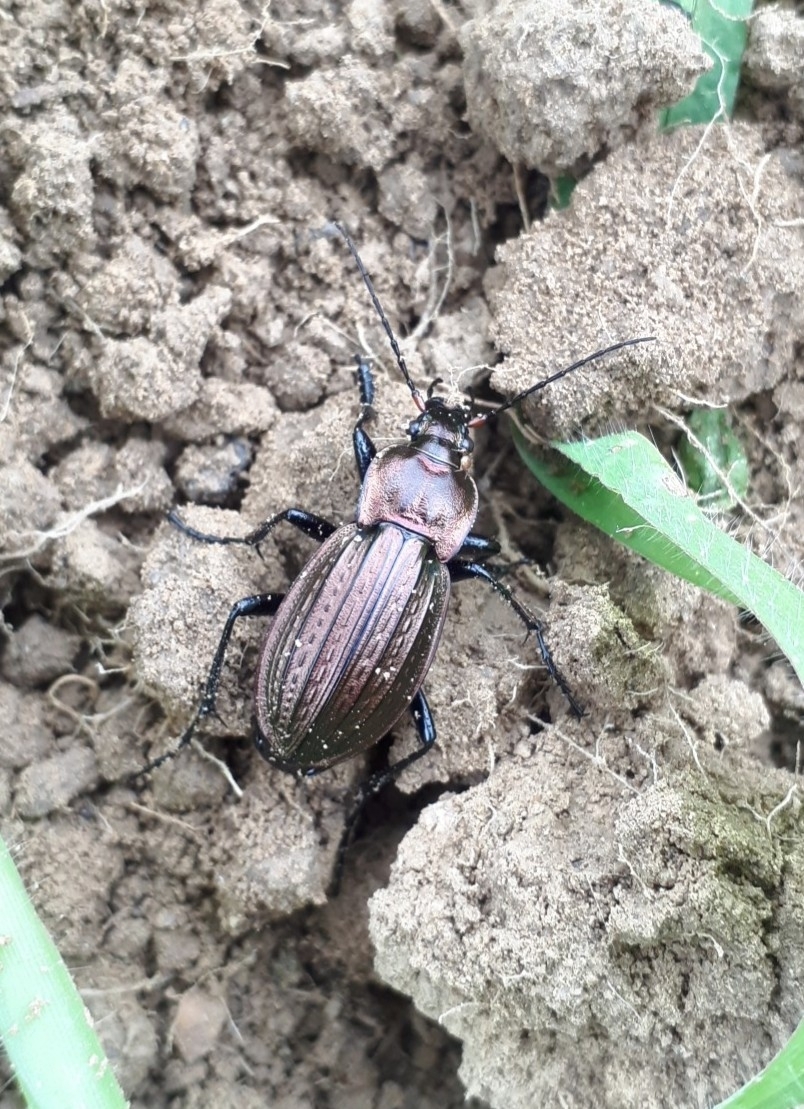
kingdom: Animalia
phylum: Arthropoda
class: Insecta
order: Coleoptera
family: Carabidae
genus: Carabus
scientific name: Carabus cancellatus
